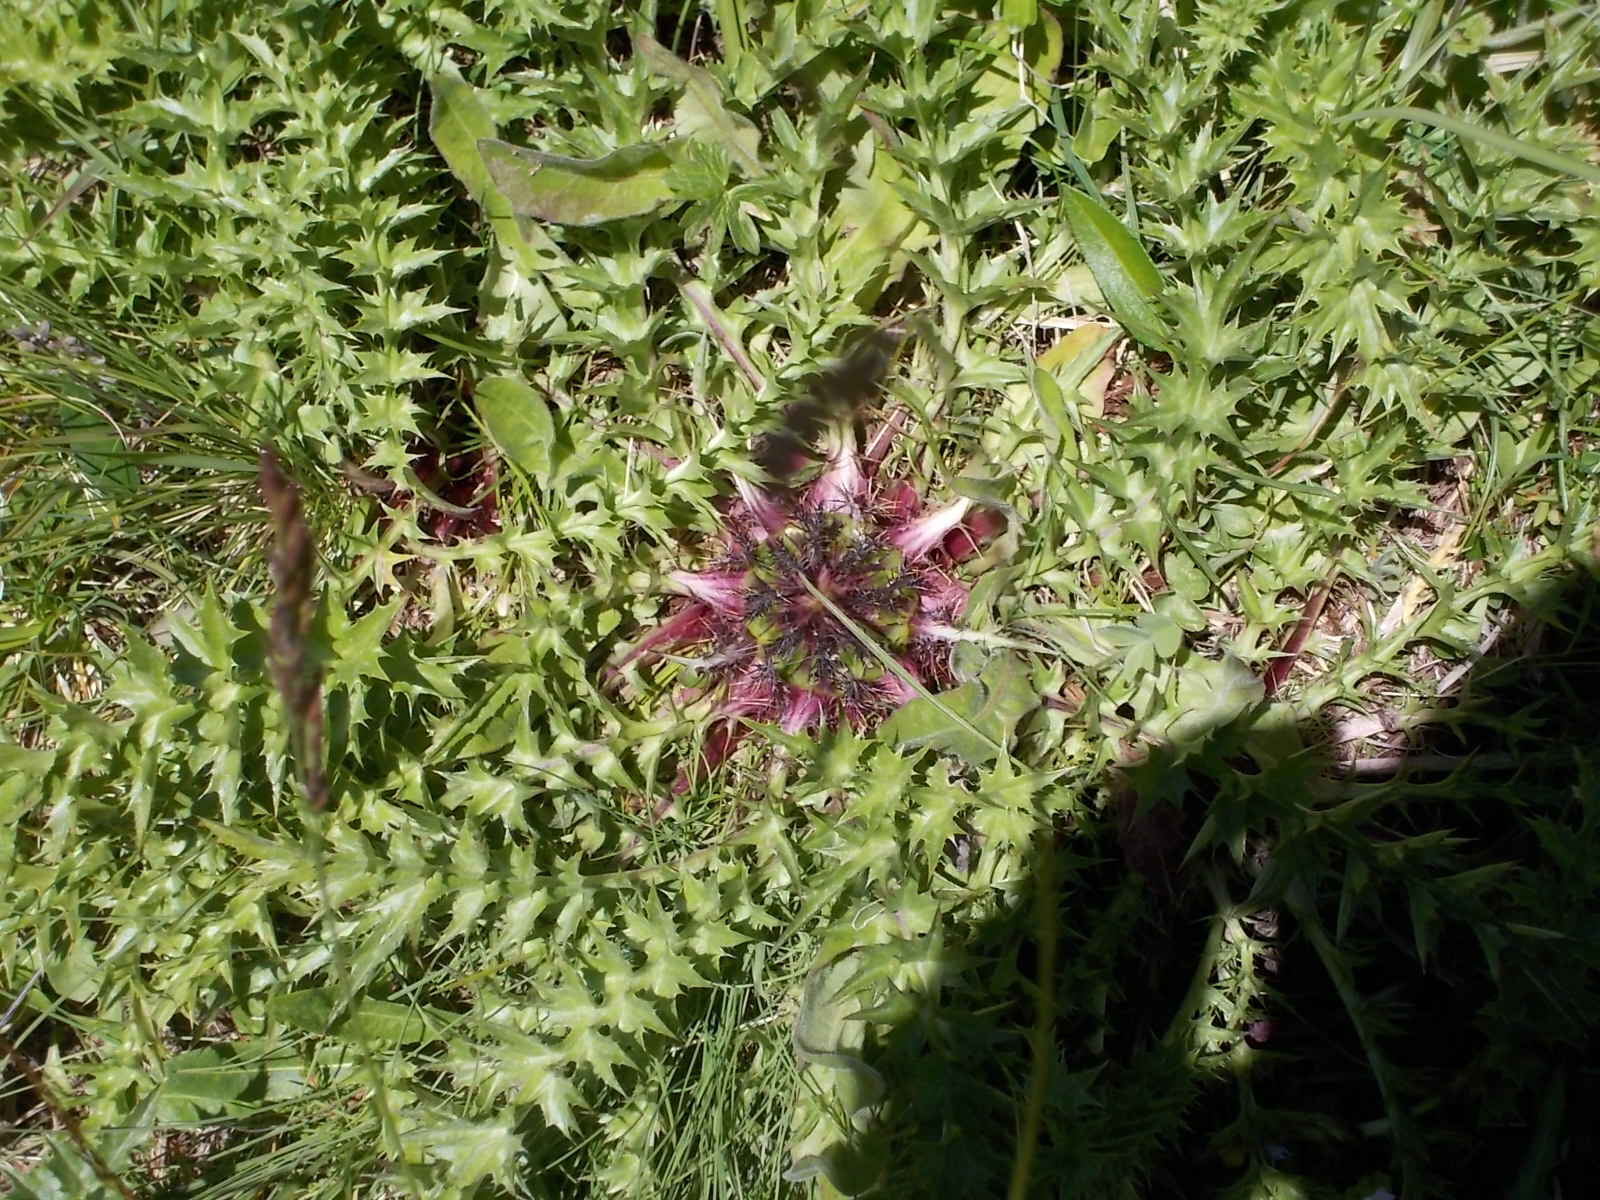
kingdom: Plantae
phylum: Tracheophyta
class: Magnoliopsida
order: Asterales
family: Asteraceae
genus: Carlina
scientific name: Carlina acaulis
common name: Stemless carline thistle
